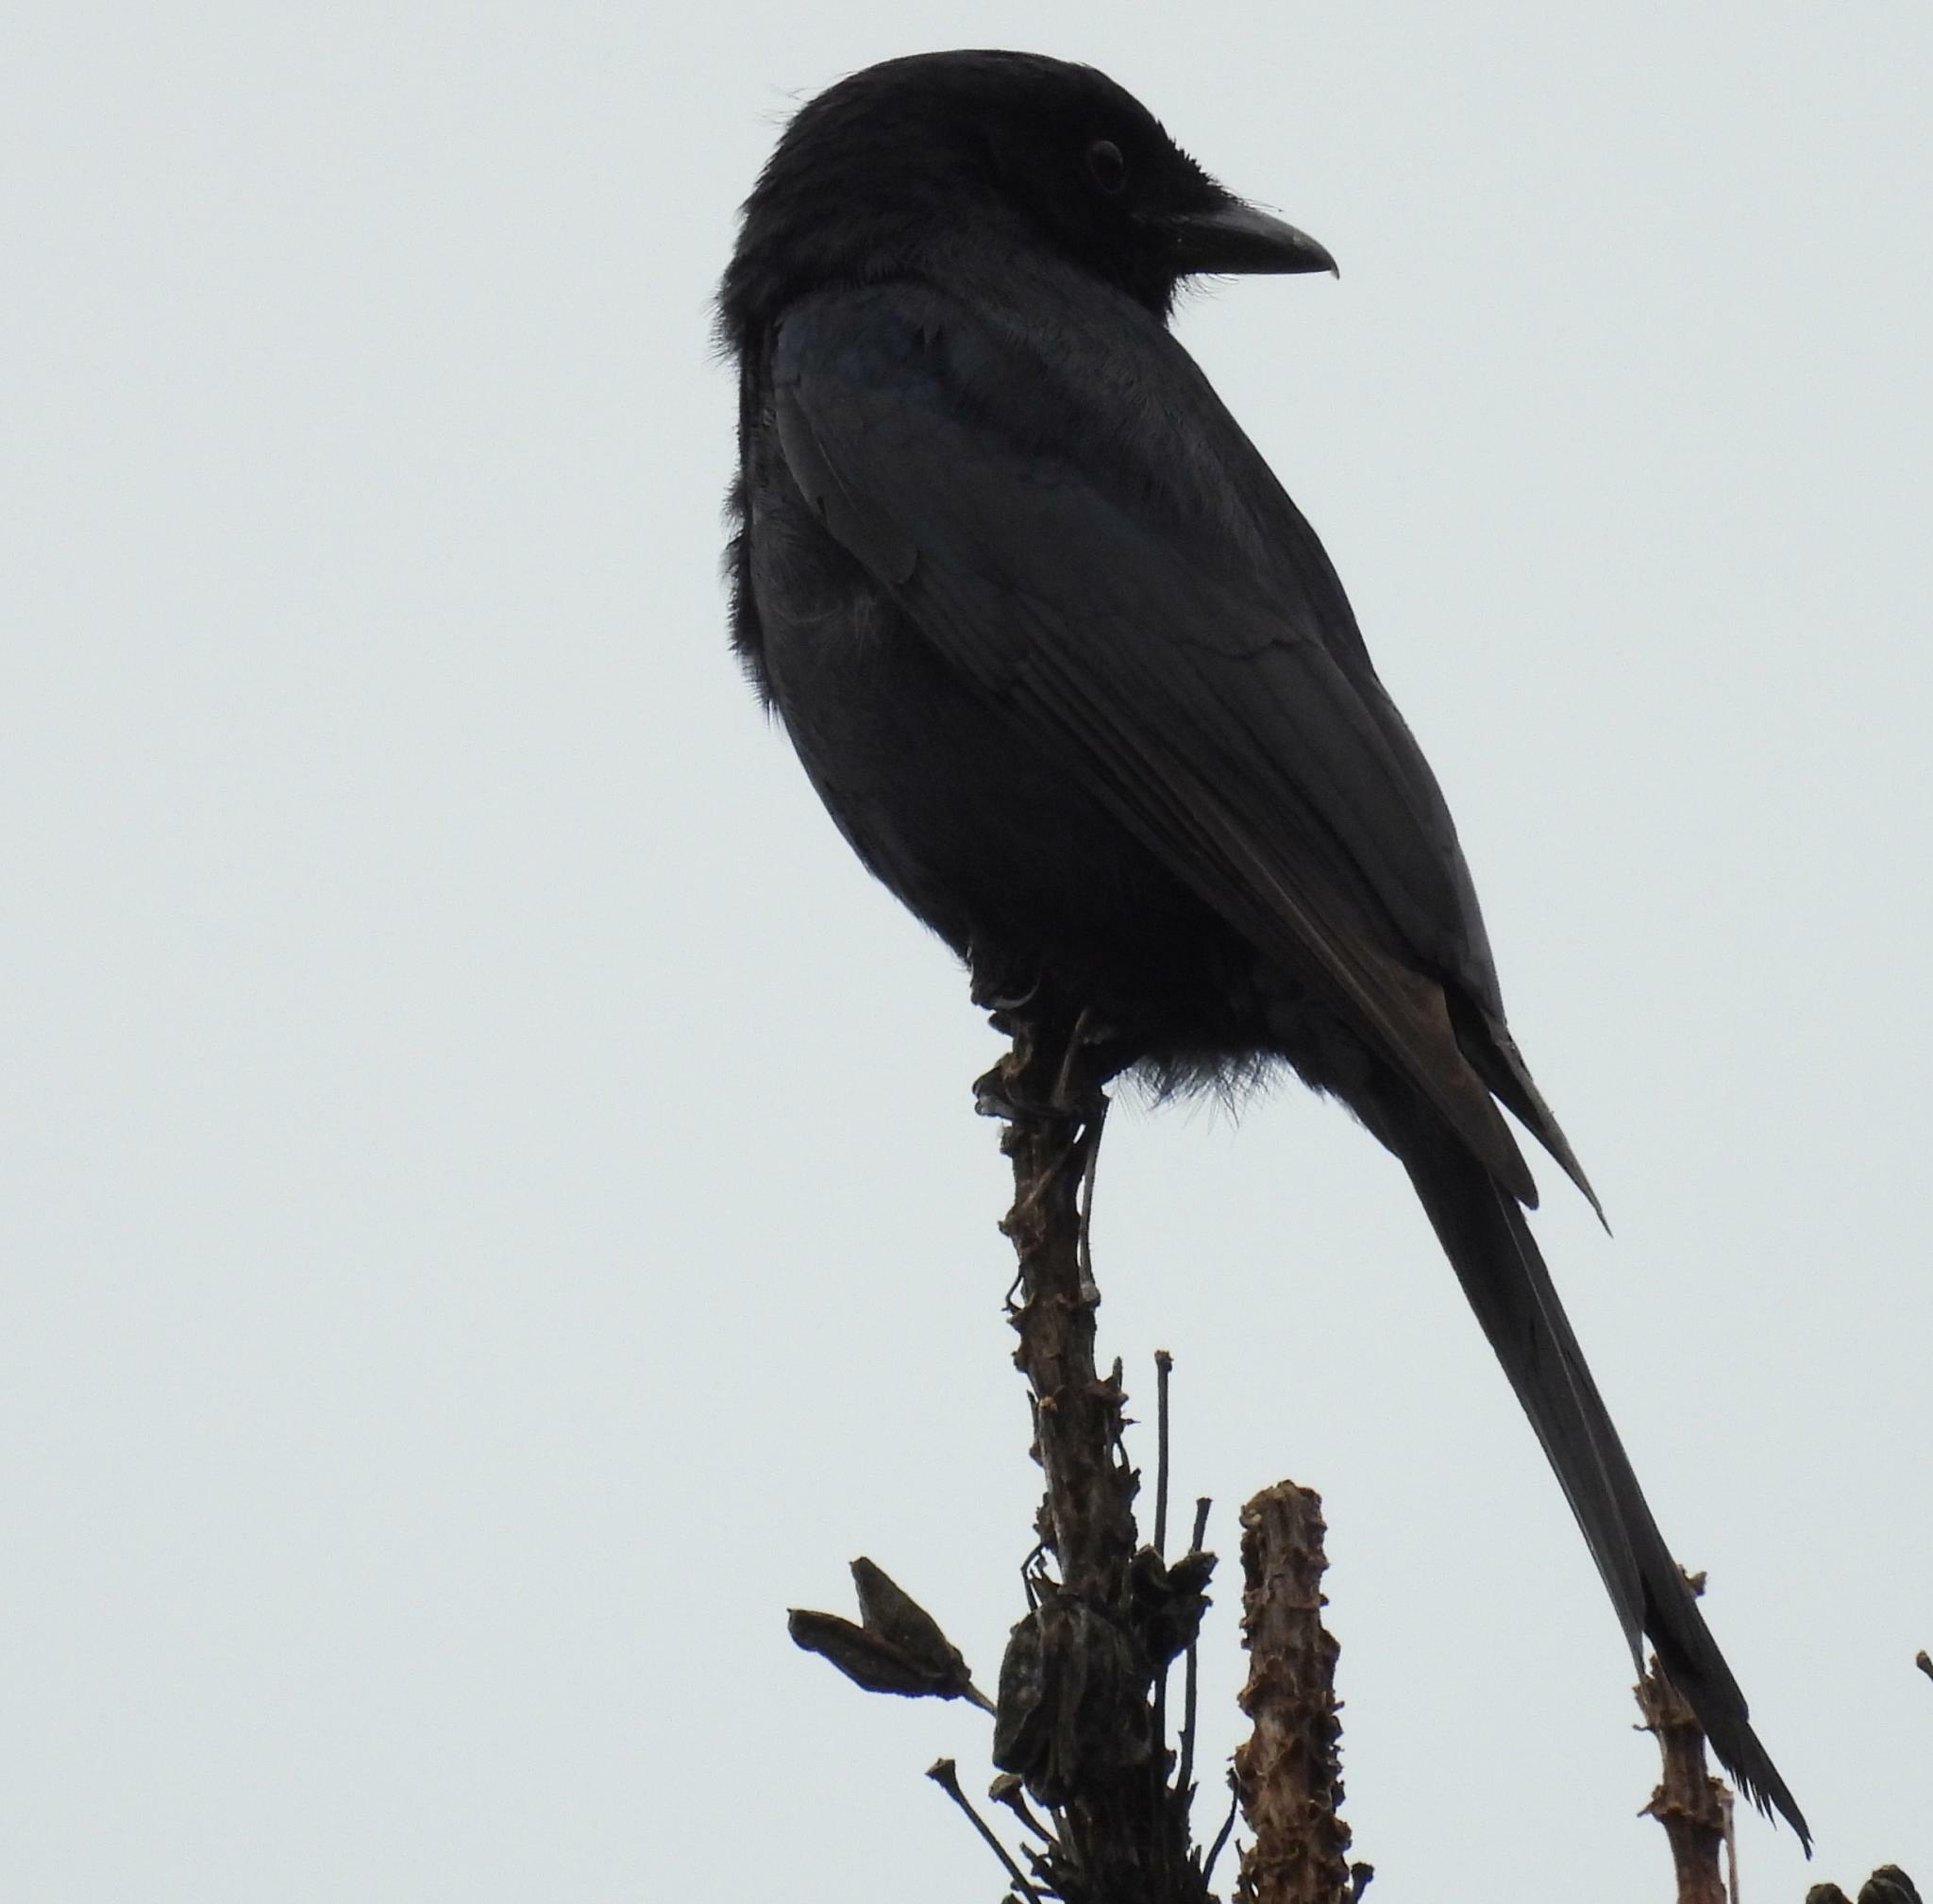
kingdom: Animalia
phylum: Chordata
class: Aves
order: Passeriformes
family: Dicruridae
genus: Dicrurus
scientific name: Dicrurus adsimilis
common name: Fork-tailed drongo
